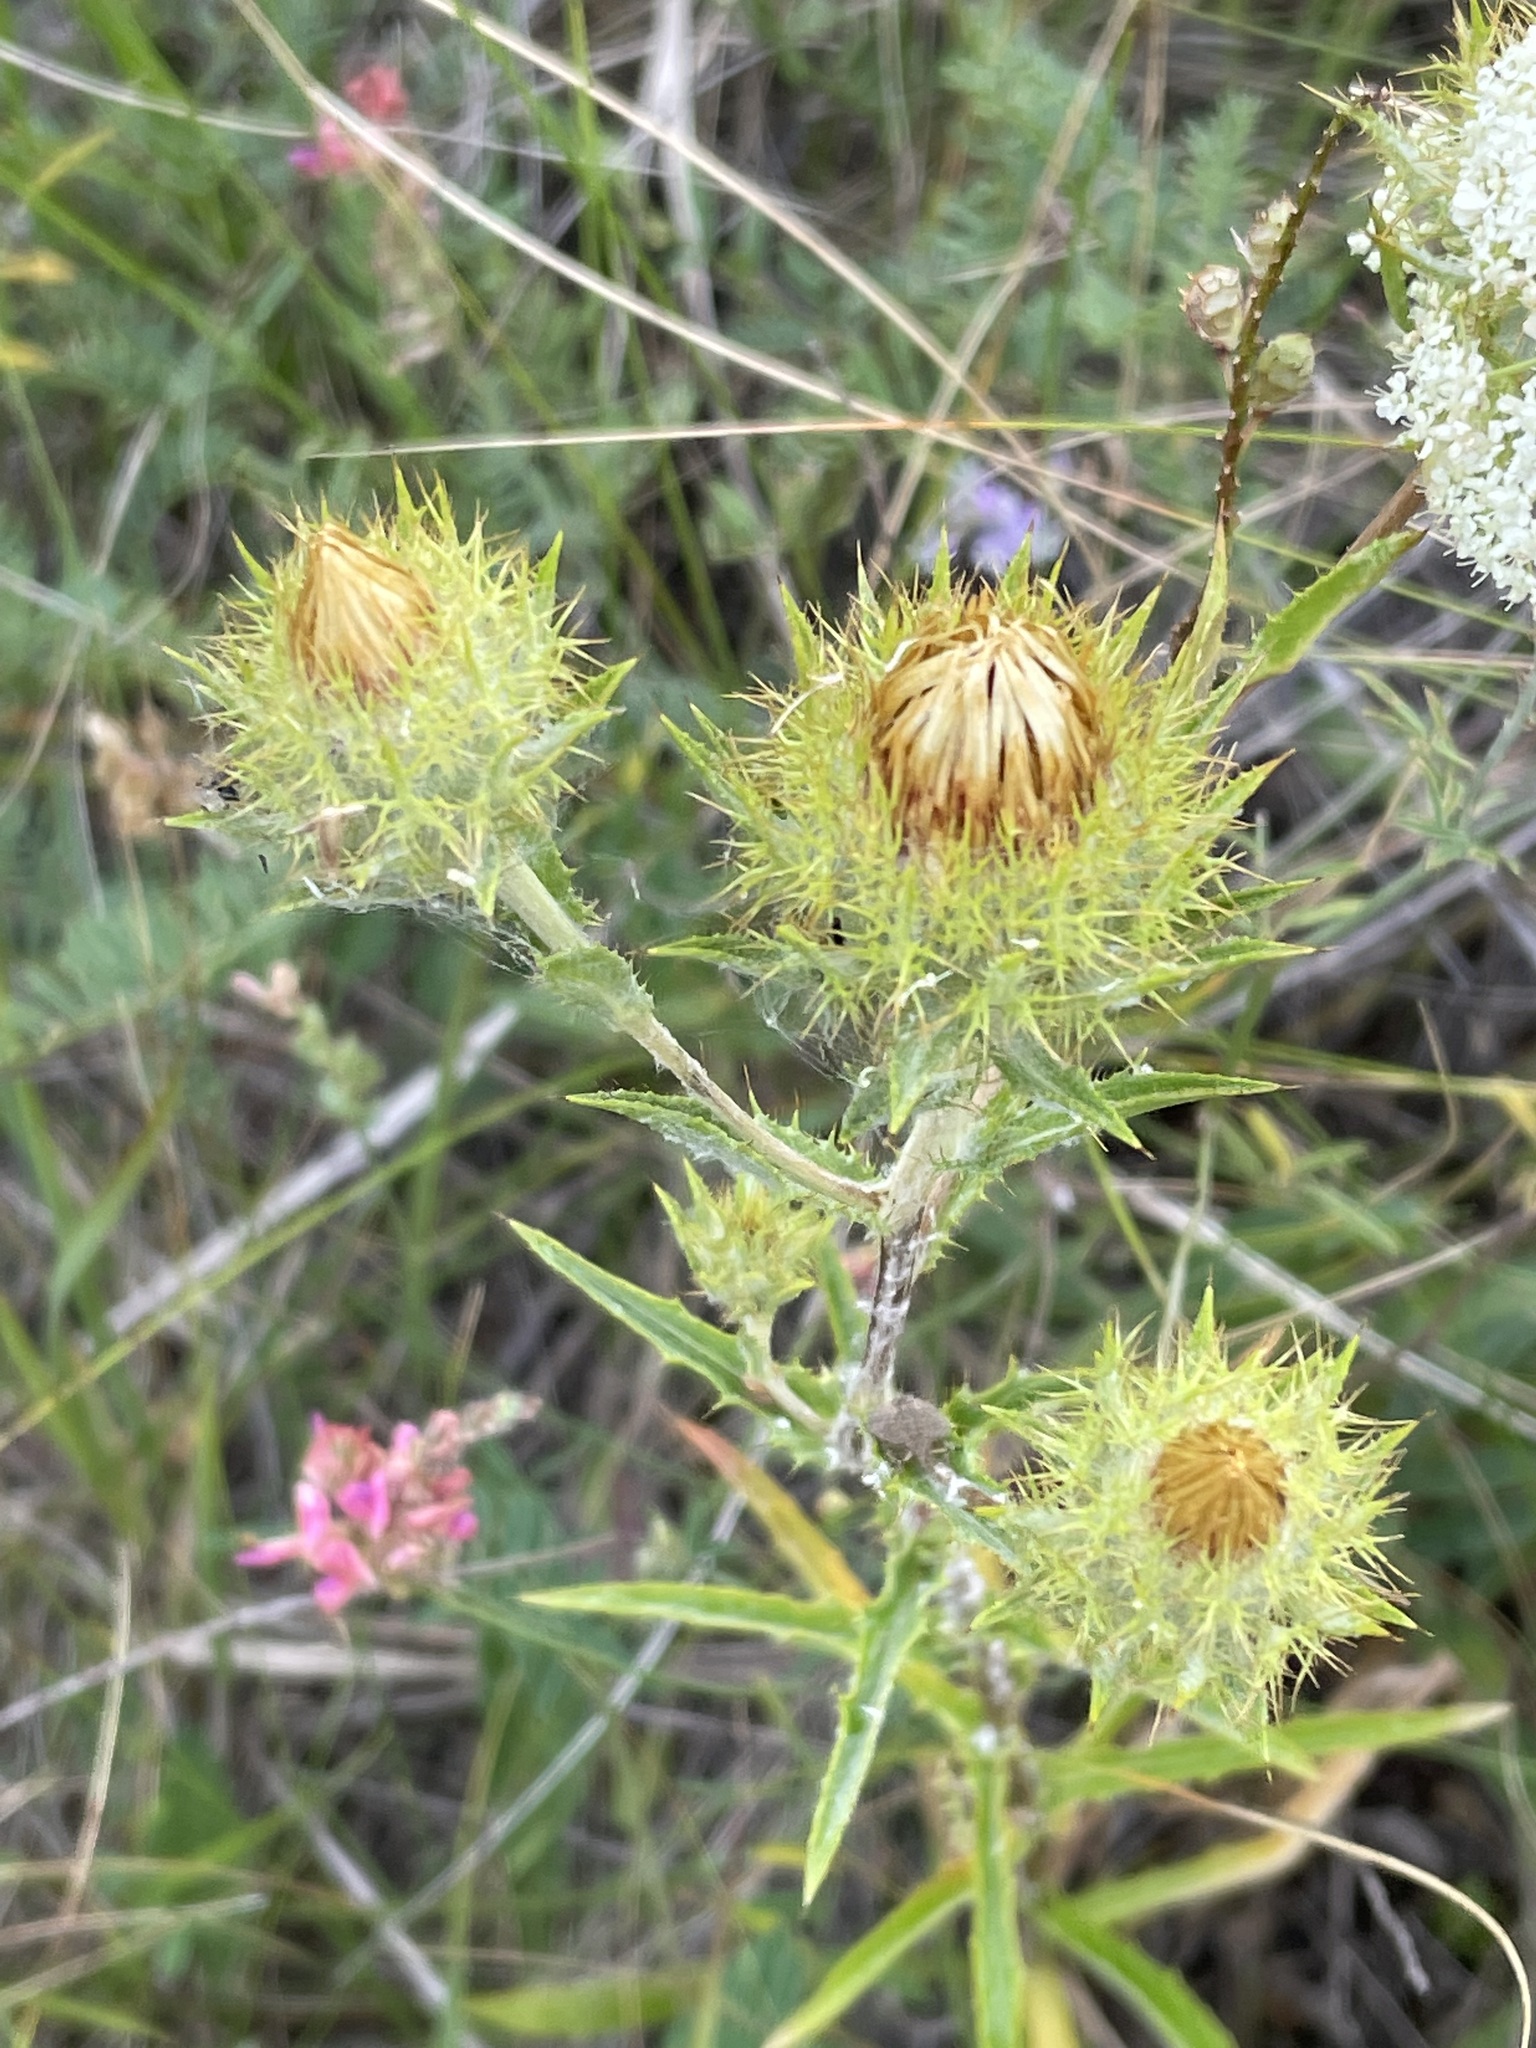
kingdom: Plantae
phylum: Tracheophyta
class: Magnoliopsida
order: Asterales
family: Asteraceae
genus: Carlina
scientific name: Carlina biebersteinii
